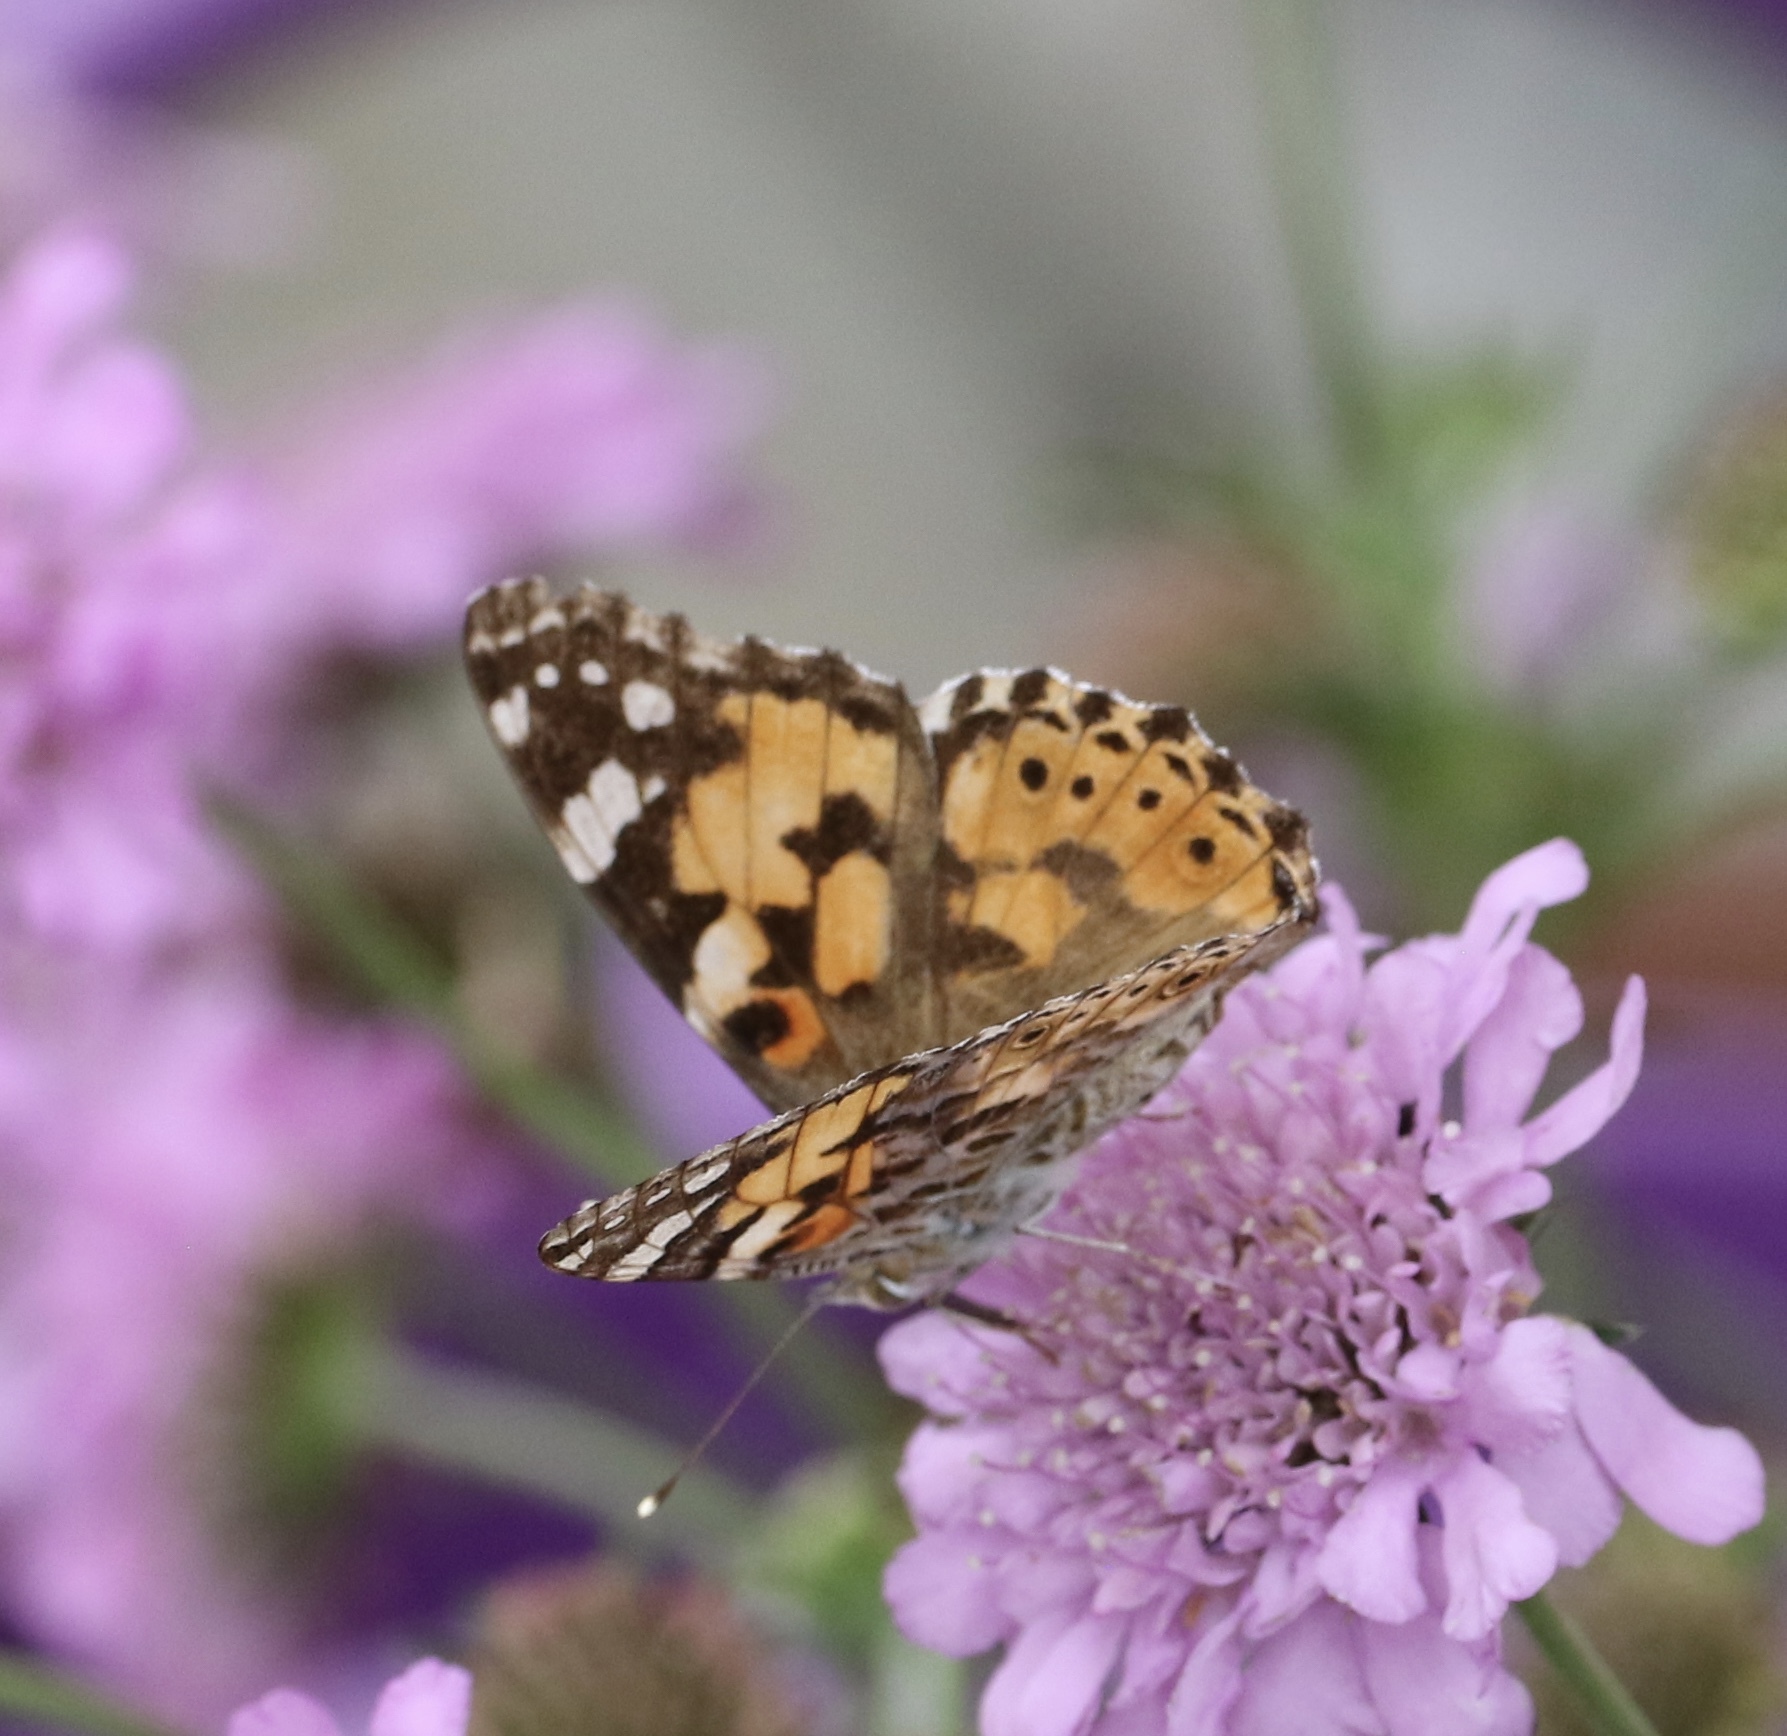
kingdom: Animalia
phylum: Arthropoda
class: Insecta
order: Lepidoptera
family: Nymphalidae
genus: Vanessa
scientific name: Vanessa cardui
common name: Painted lady
